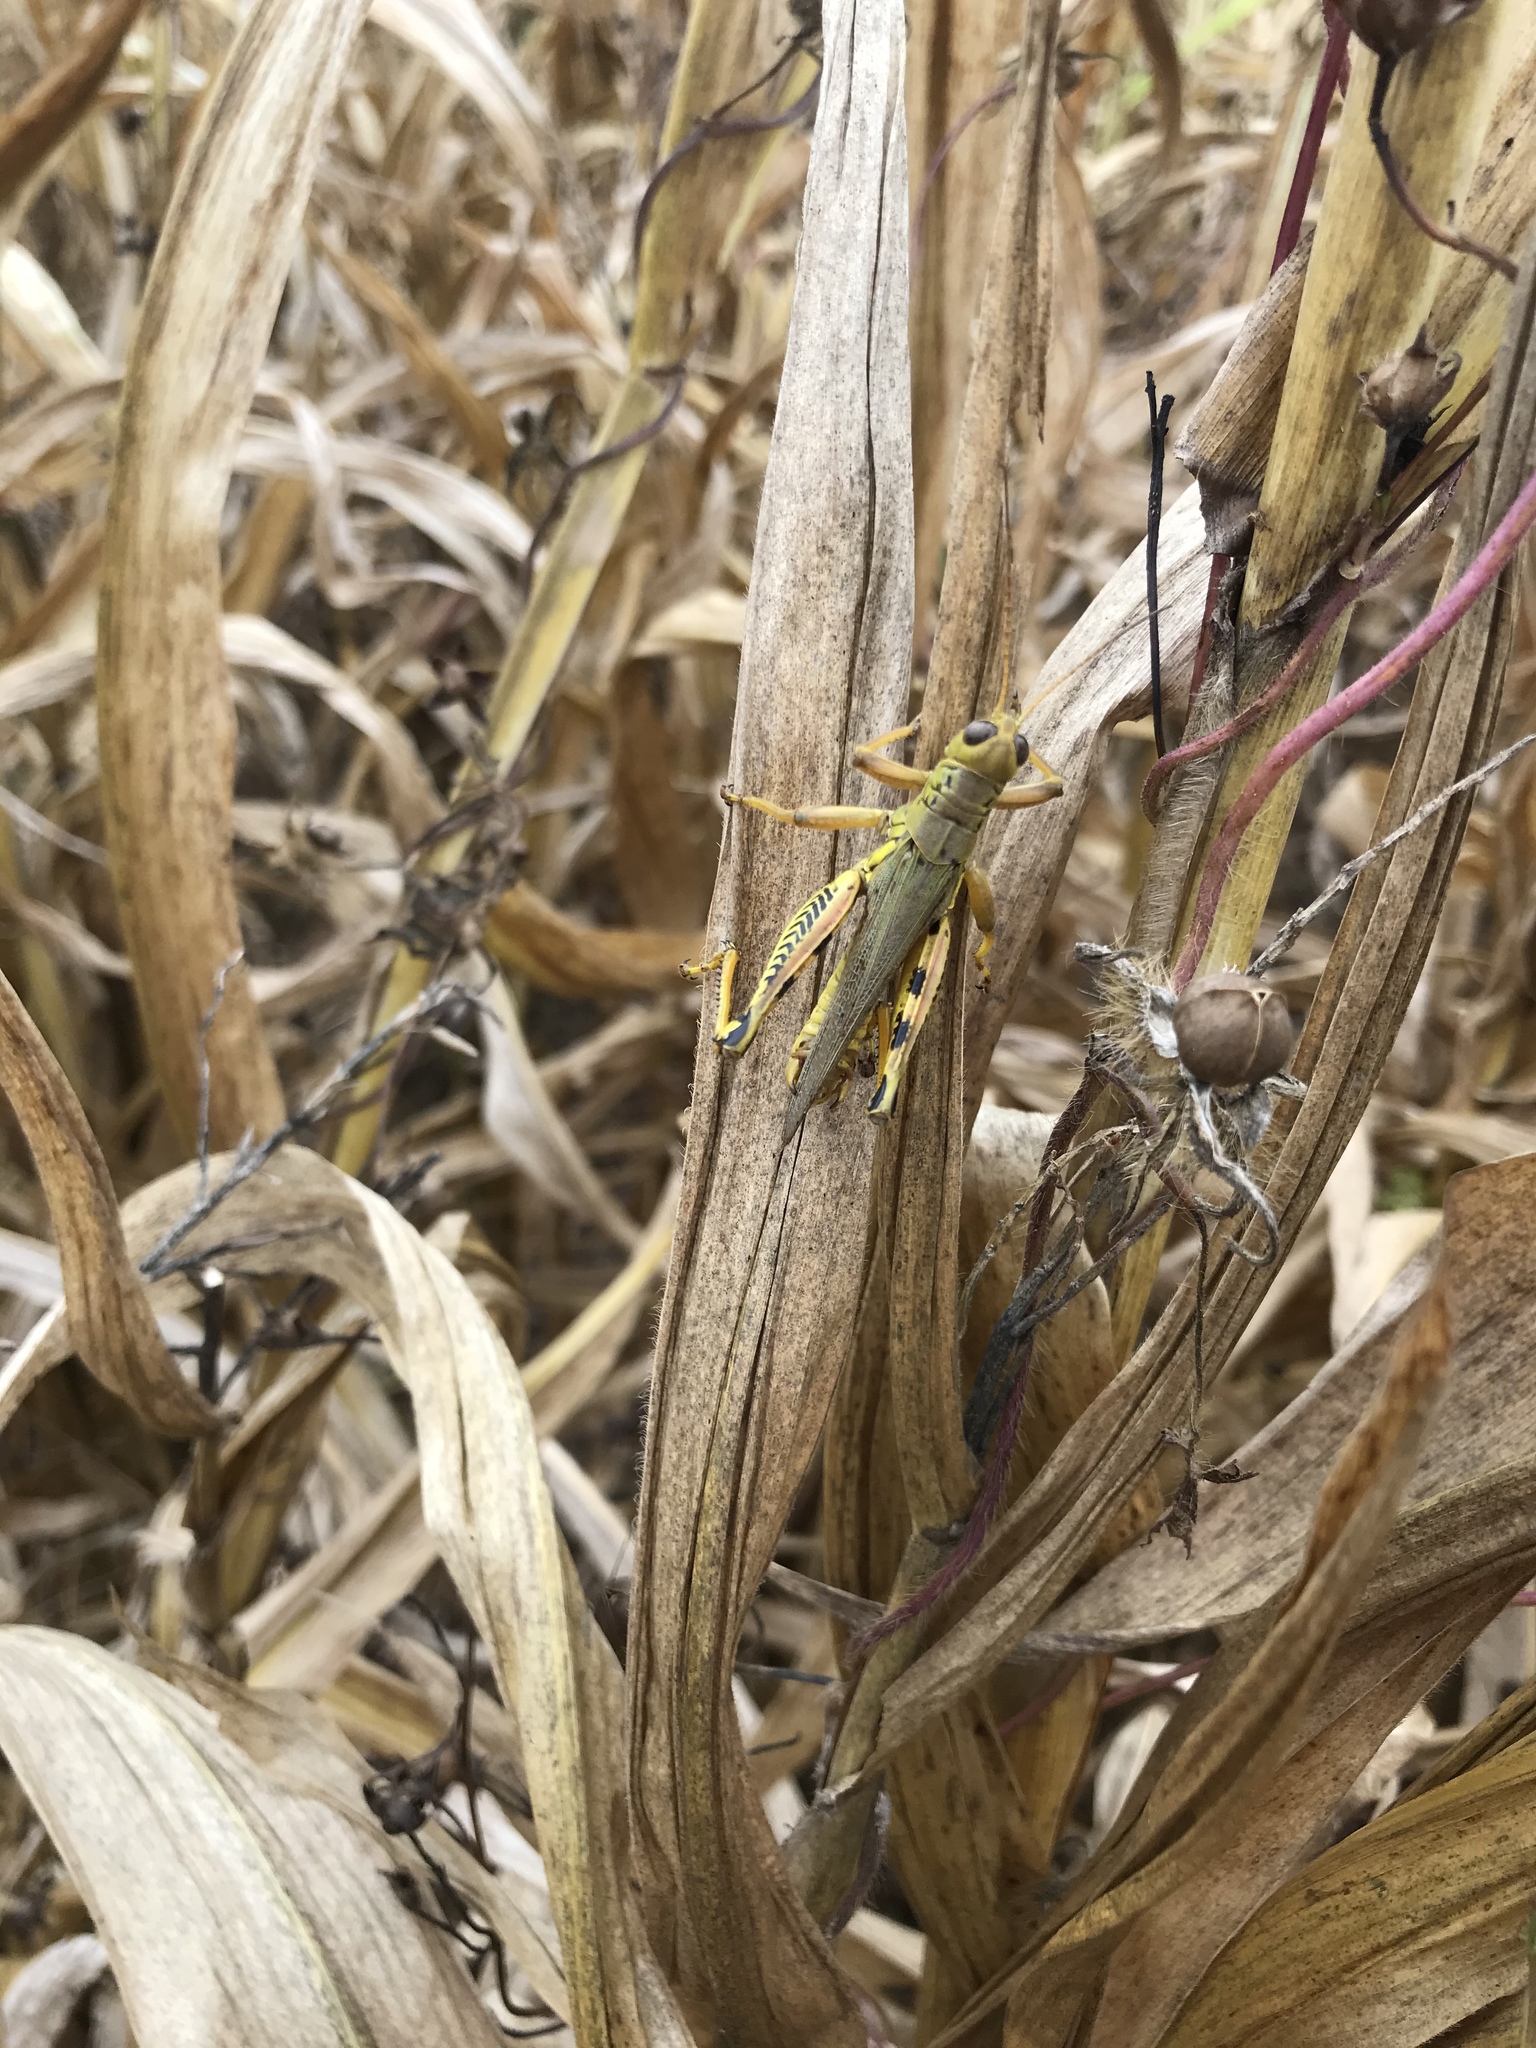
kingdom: Animalia
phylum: Arthropoda
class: Insecta
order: Orthoptera
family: Acrididae
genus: Melanoplus
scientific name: Melanoplus differentialis
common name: Differential grasshopper
